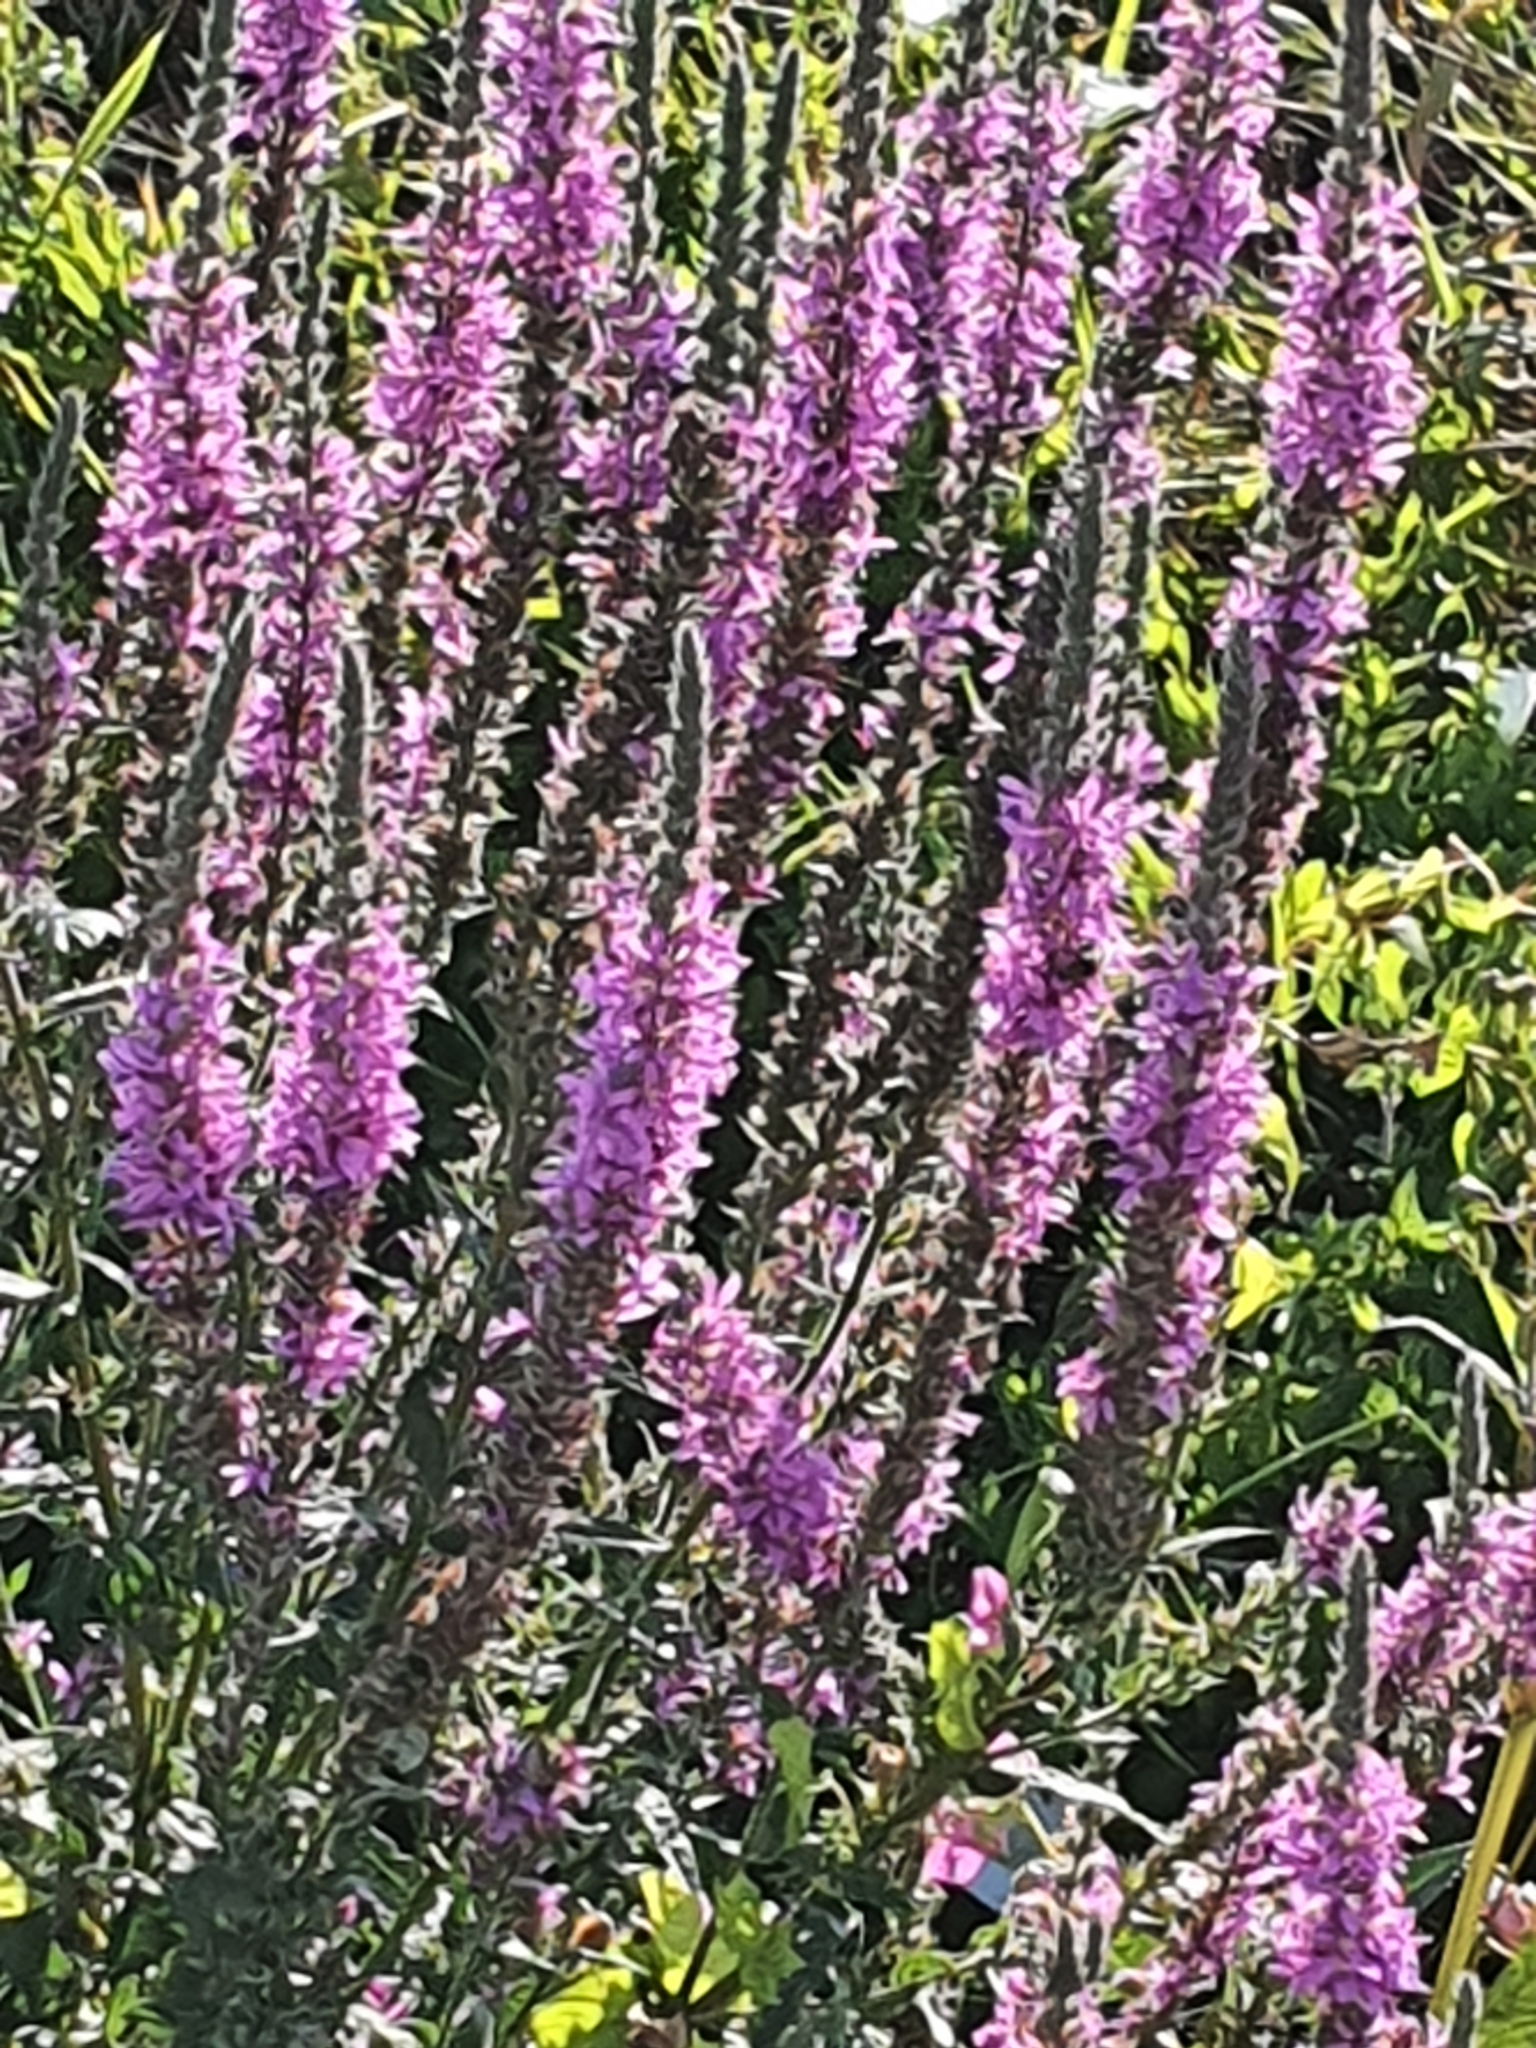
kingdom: Plantae
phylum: Tracheophyta
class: Magnoliopsida
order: Myrtales
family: Lythraceae
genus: Lythrum
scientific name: Lythrum salicaria
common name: Purple loosestrife
